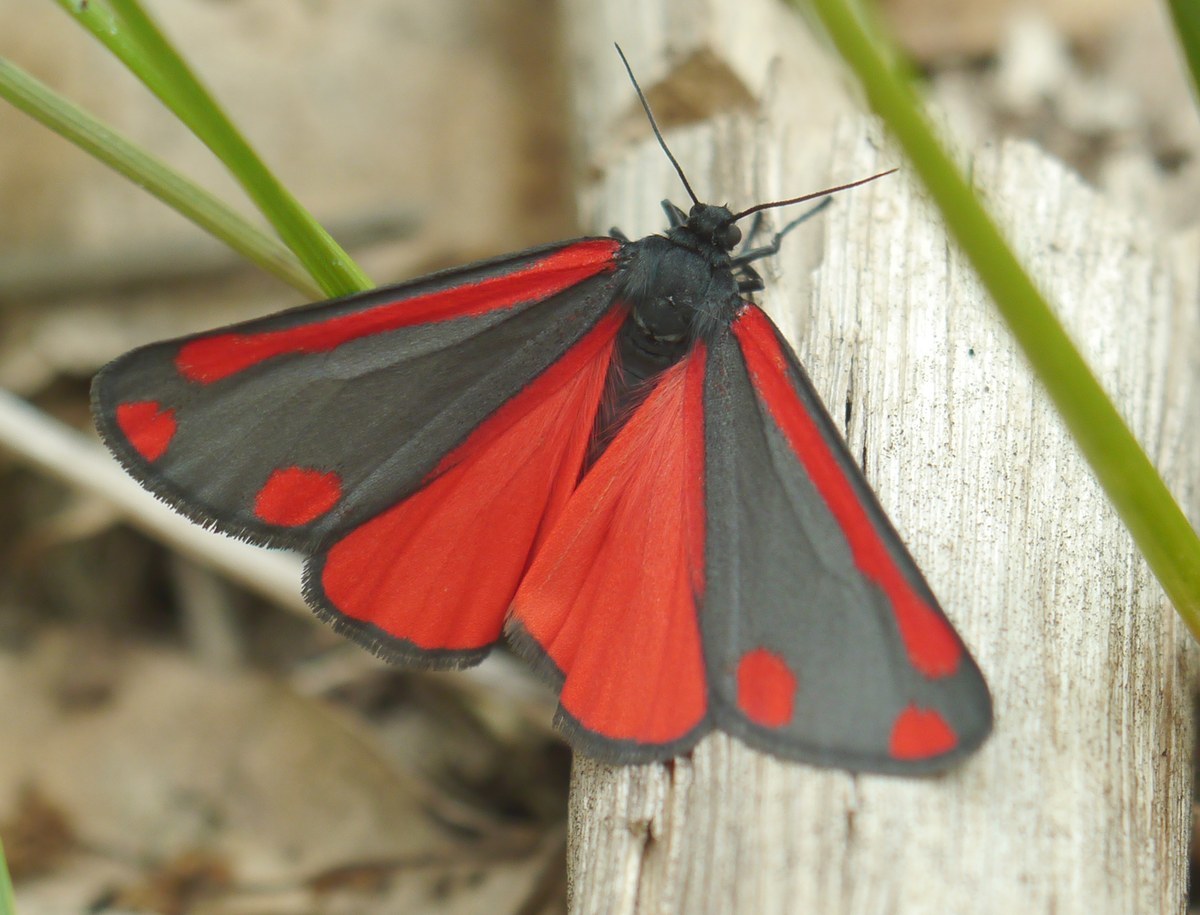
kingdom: Animalia
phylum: Arthropoda
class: Insecta
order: Lepidoptera
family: Erebidae
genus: Tyria
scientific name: Tyria jacobaeae
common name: Cinnabar
